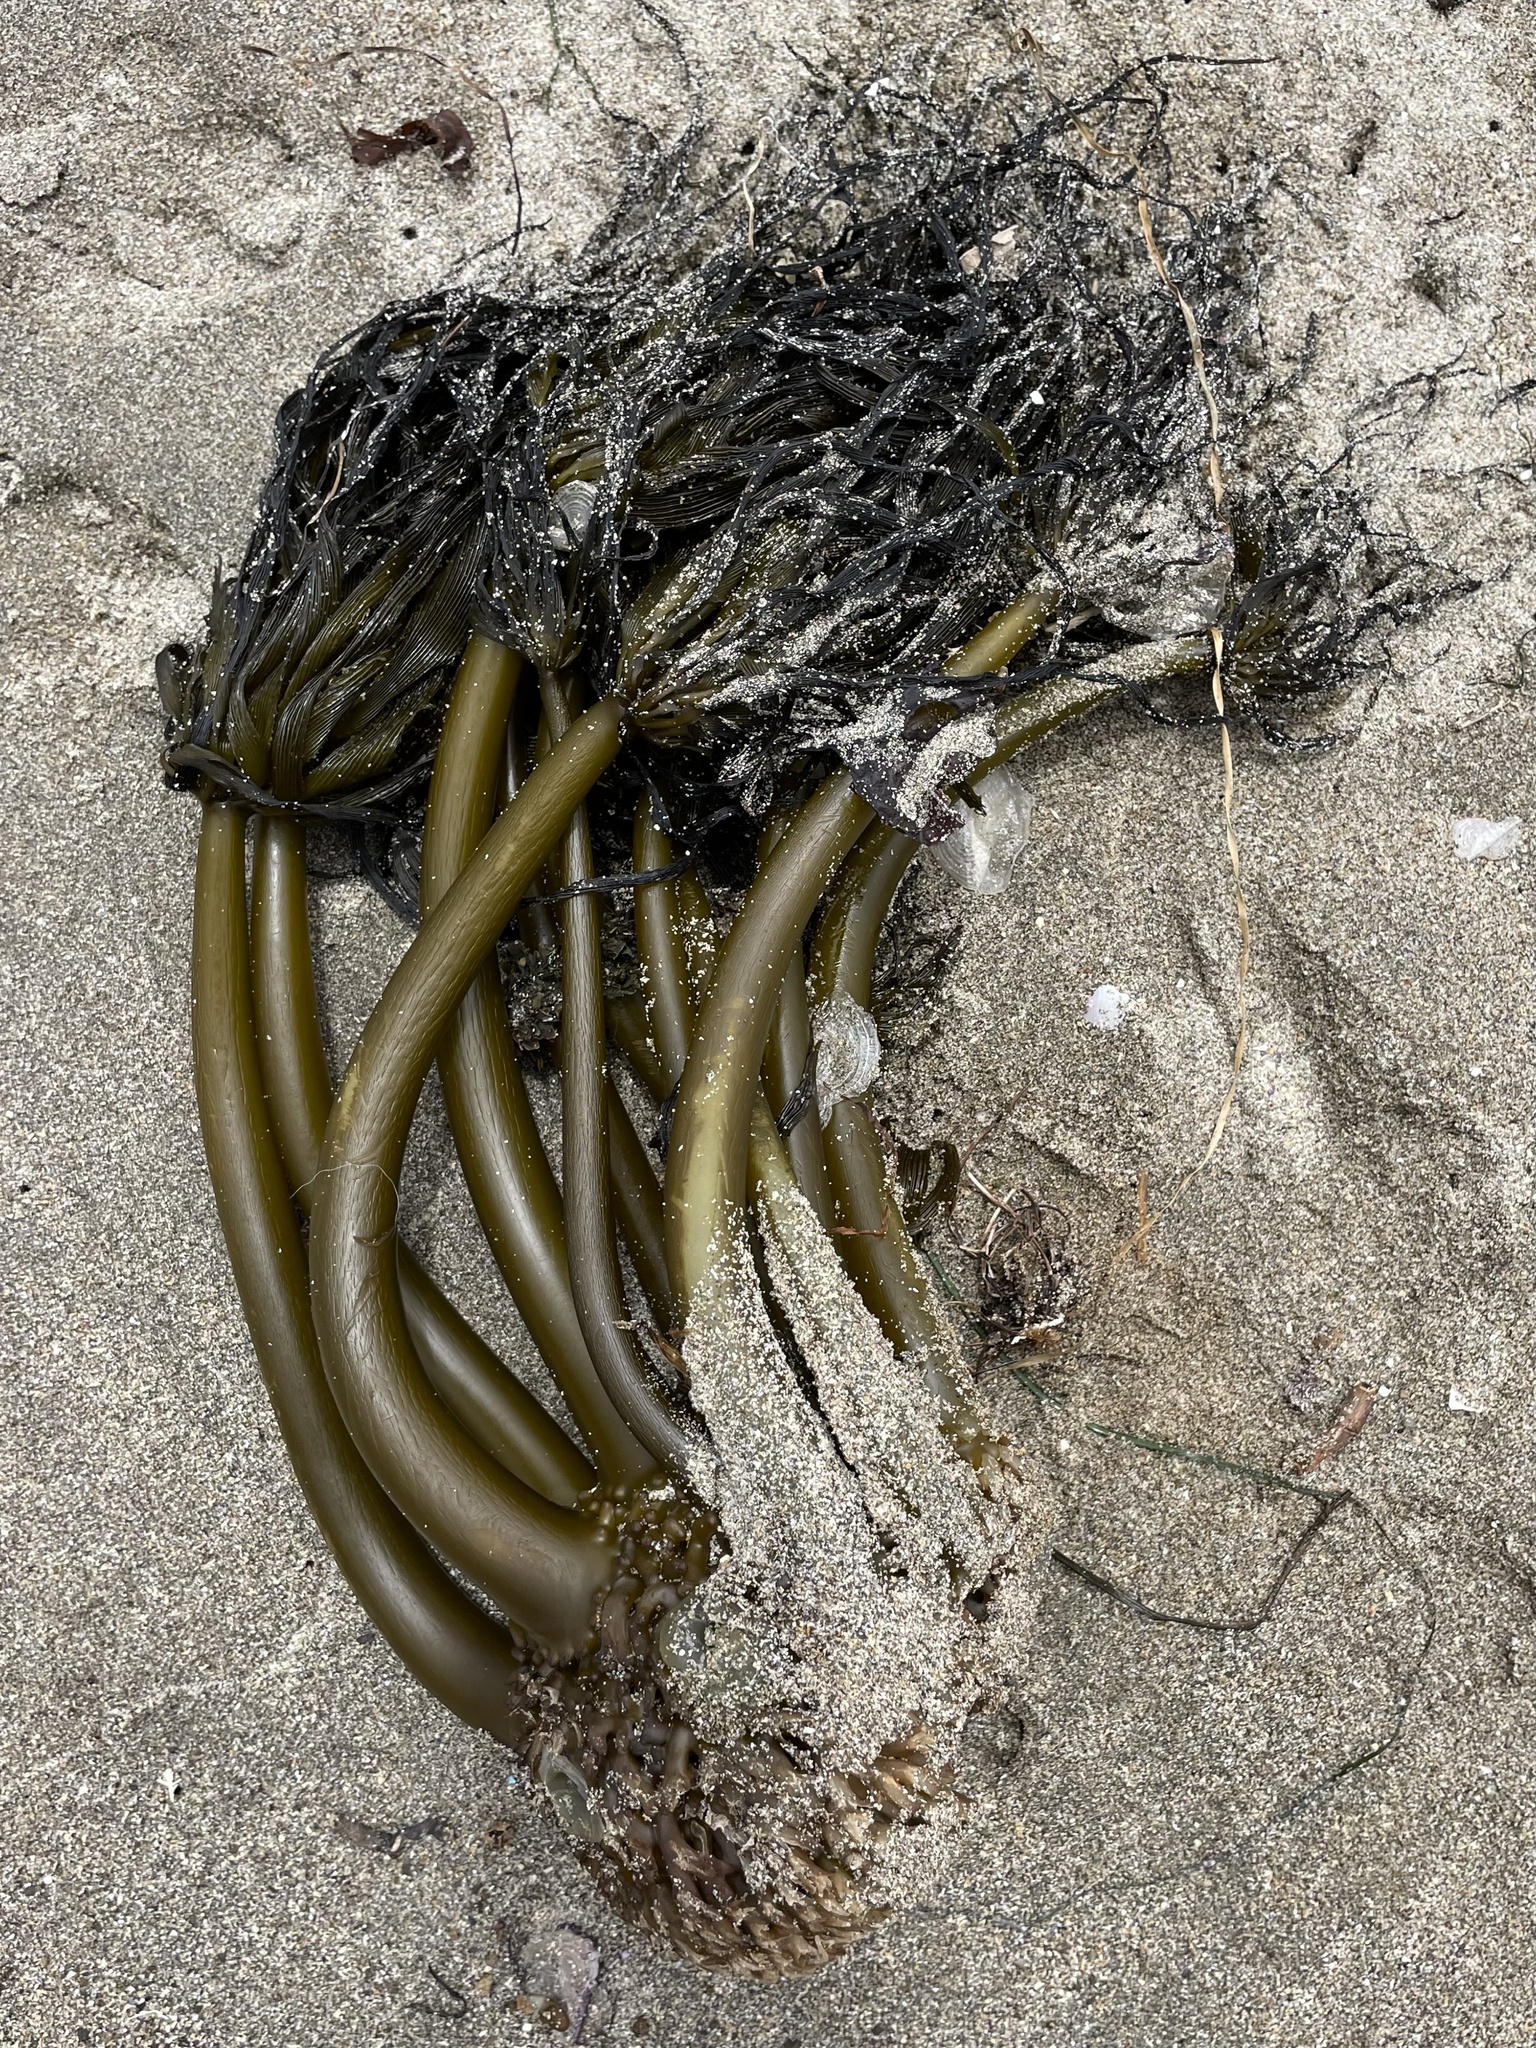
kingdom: Chromista
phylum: Ochrophyta
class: Phaeophyceae
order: Laminariales
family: Laminariaceae
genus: Postelsia
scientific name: Postelsia palmiformis
